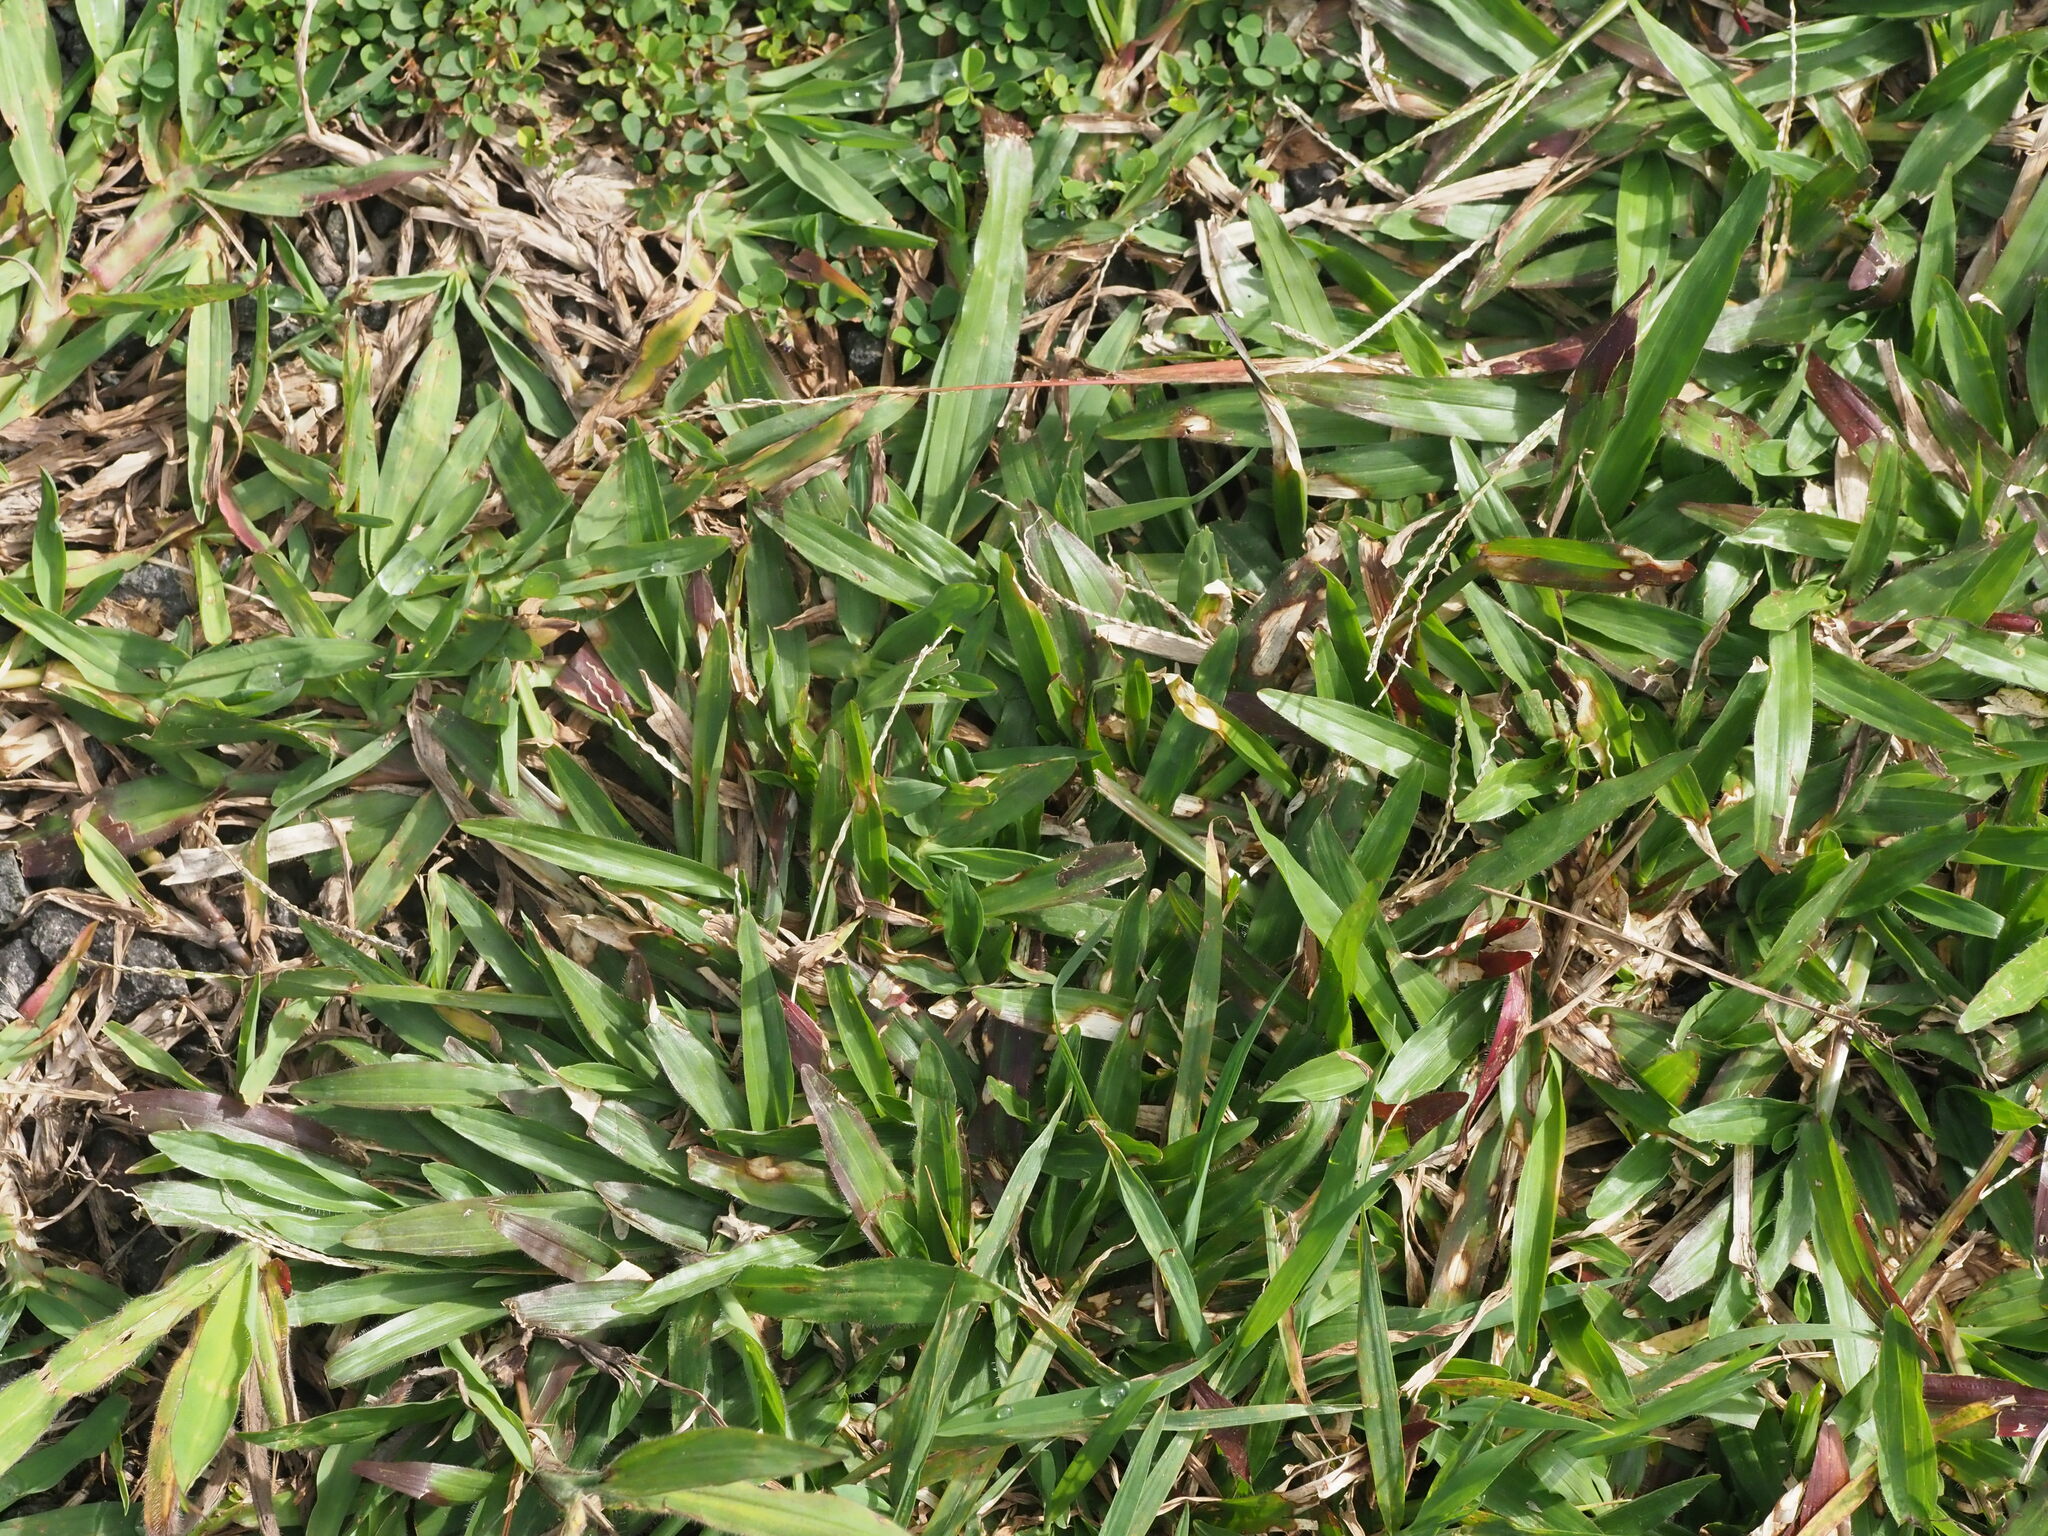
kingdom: Plantae
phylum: Tracheophyta
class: Liliopsida
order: Poales
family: Poaceae
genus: Axonopus
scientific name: Axonopus compressus
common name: American carpet grass
